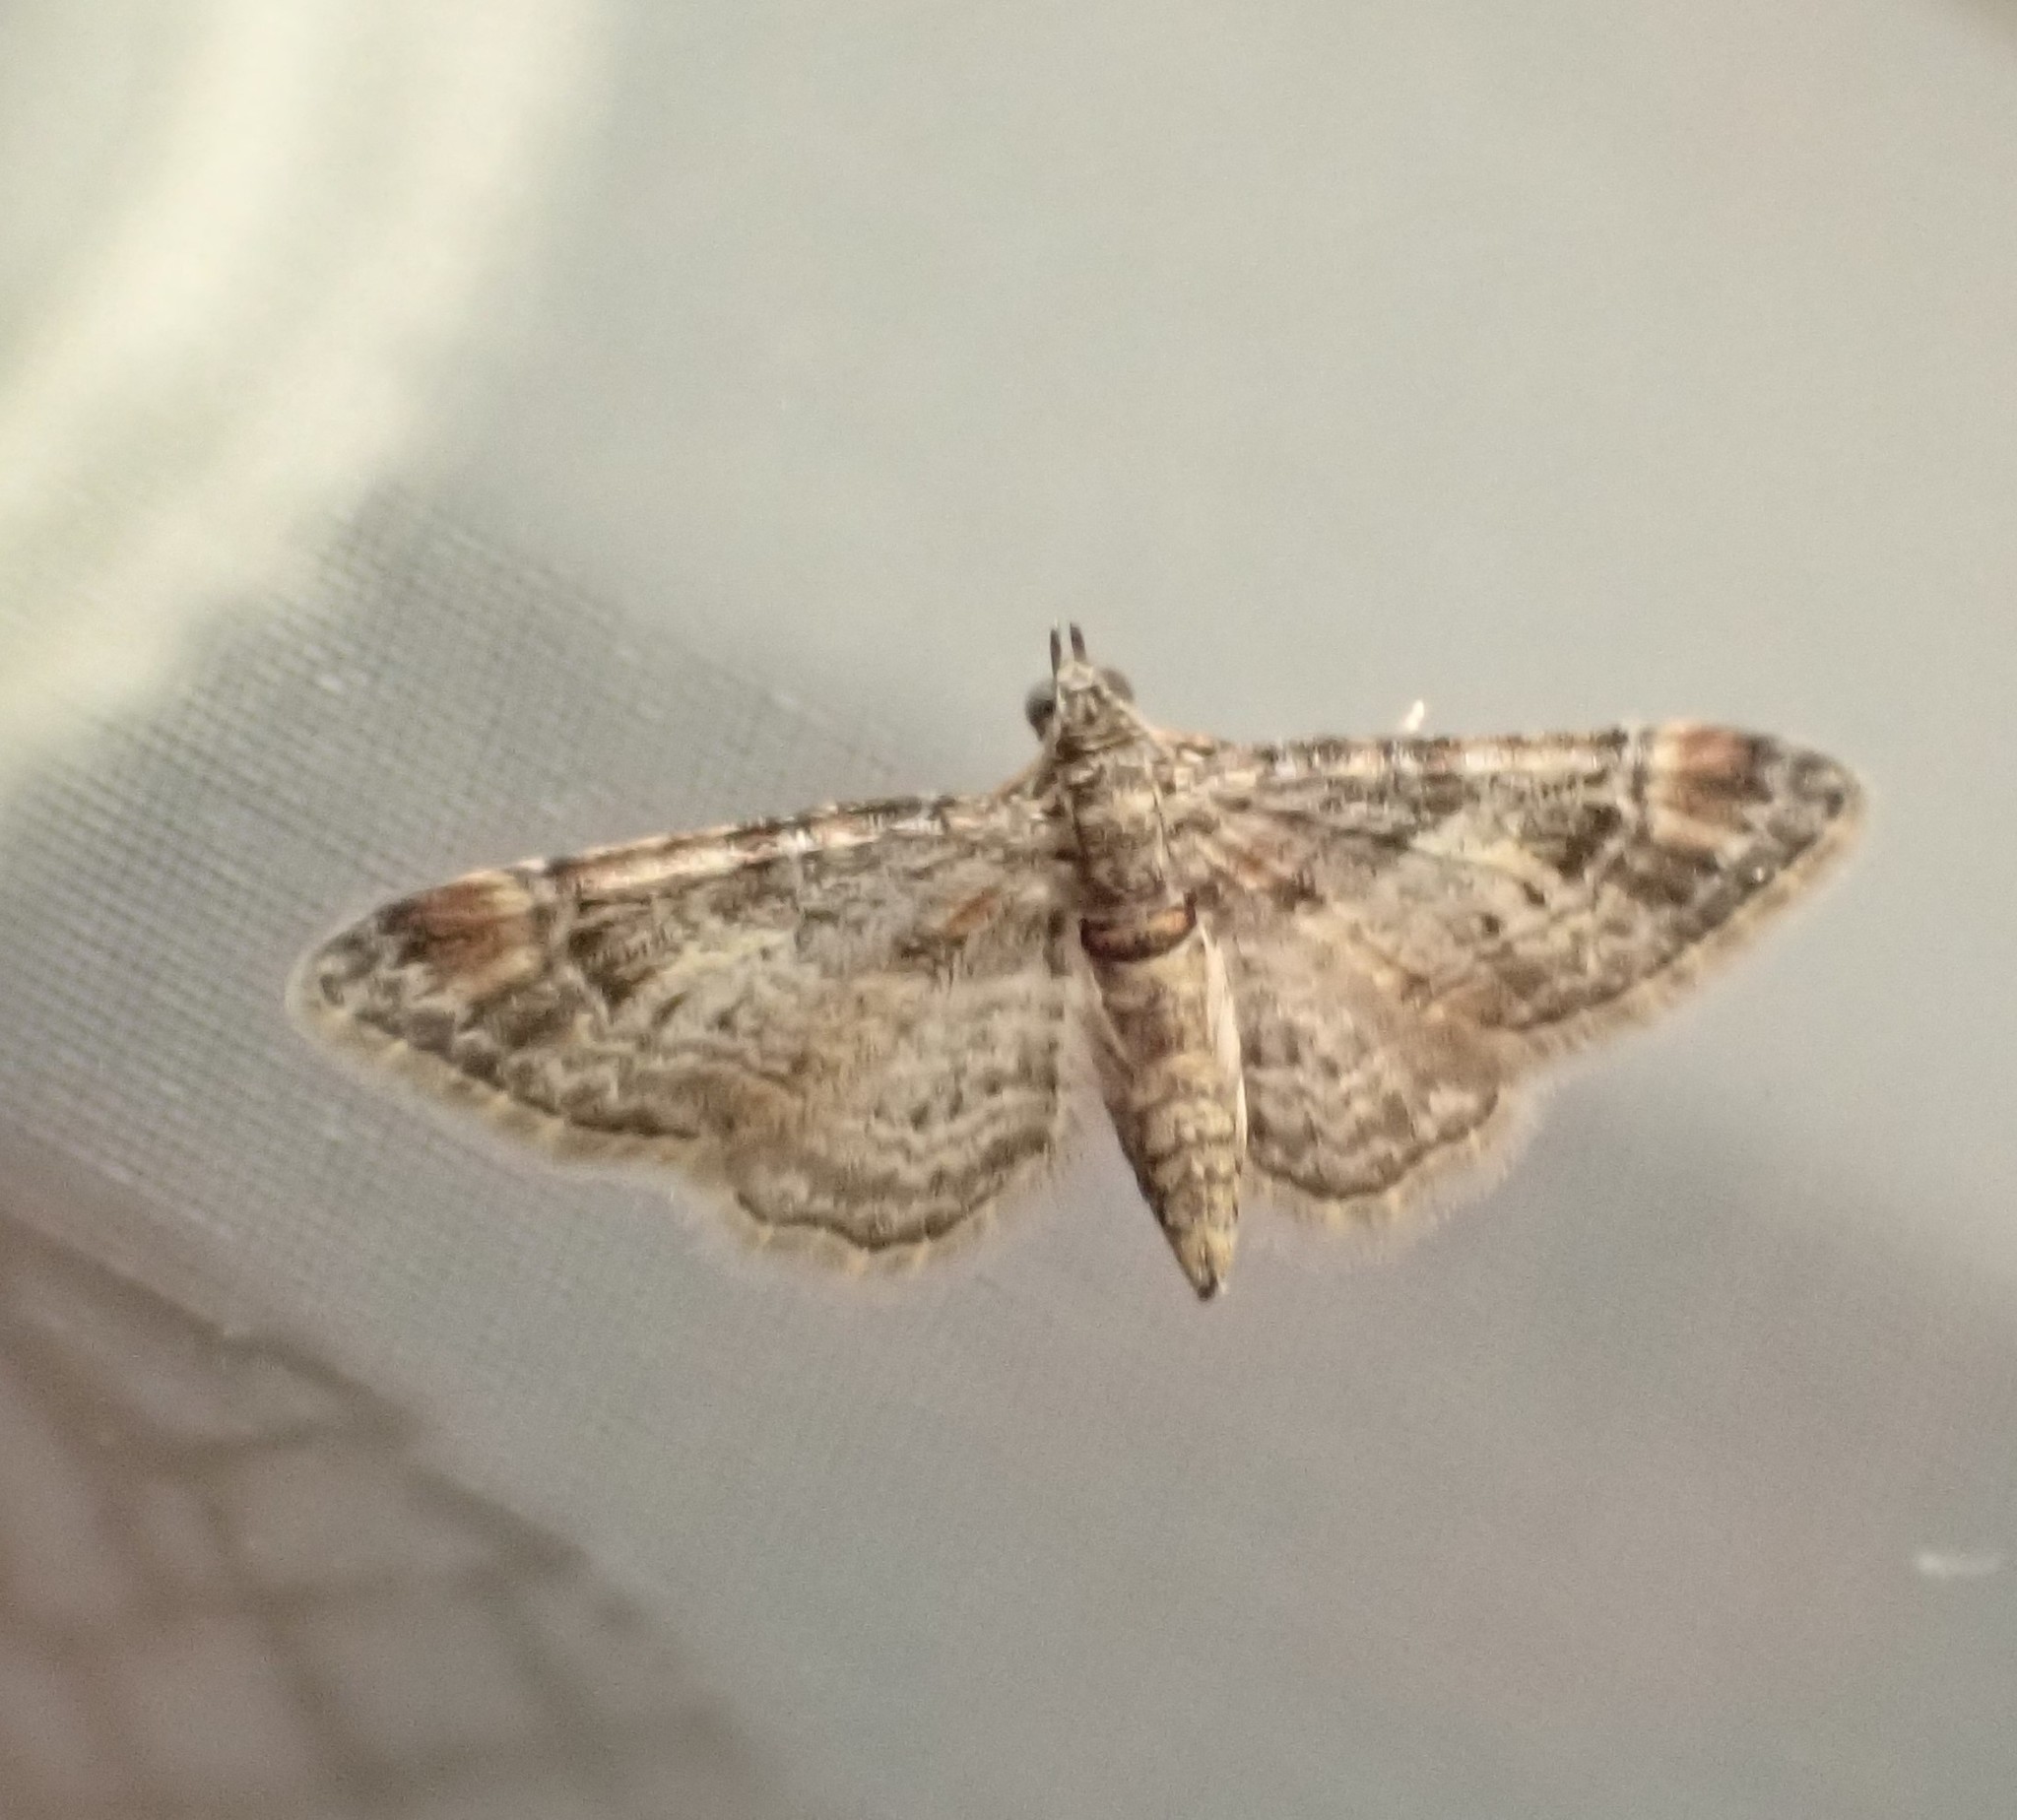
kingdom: Animalia
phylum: Arthropoda
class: Insecta
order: Lepidoptera
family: Geometridae
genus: Gymnoscelis
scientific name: Gymnoscelis rufifasciata
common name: Double-striped pug
